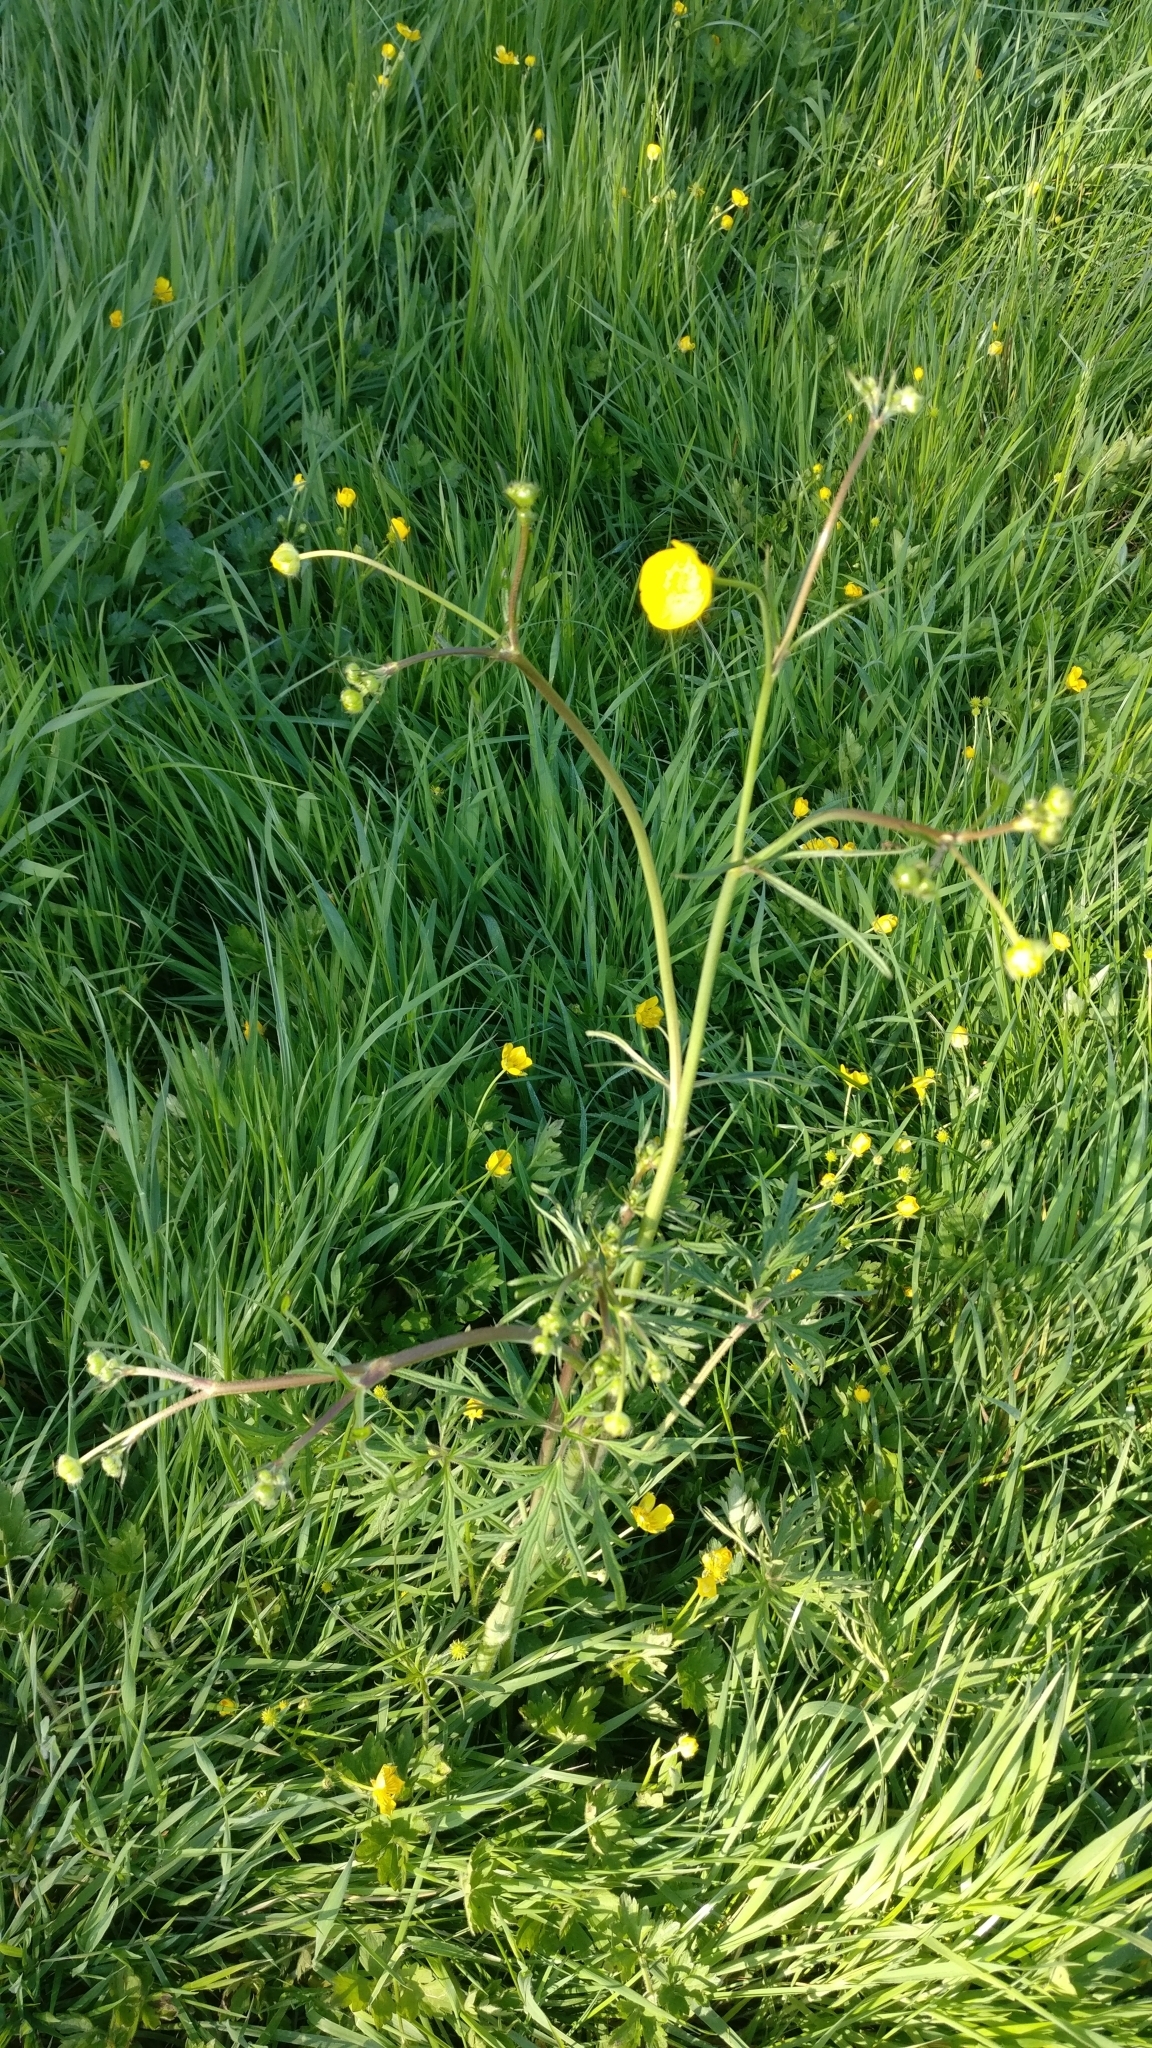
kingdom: Plantae
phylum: Tracheophyta
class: Magnoliopsida
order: Ranunculales
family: Ranunculaceae
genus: Ranunculus
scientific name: Ranunculus acris
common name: Meadow buttercup
